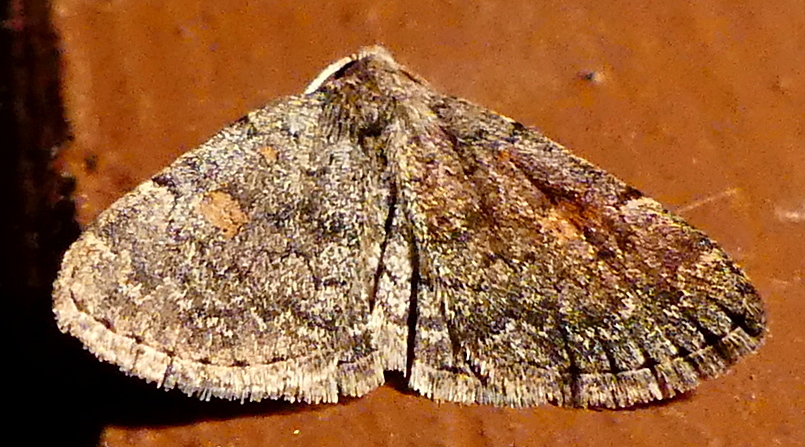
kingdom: Animalia
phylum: Arthropoda
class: Insecta
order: Lepidoptera
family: Erebidae
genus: Idia
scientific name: Idia aemula
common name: Common idia moth
